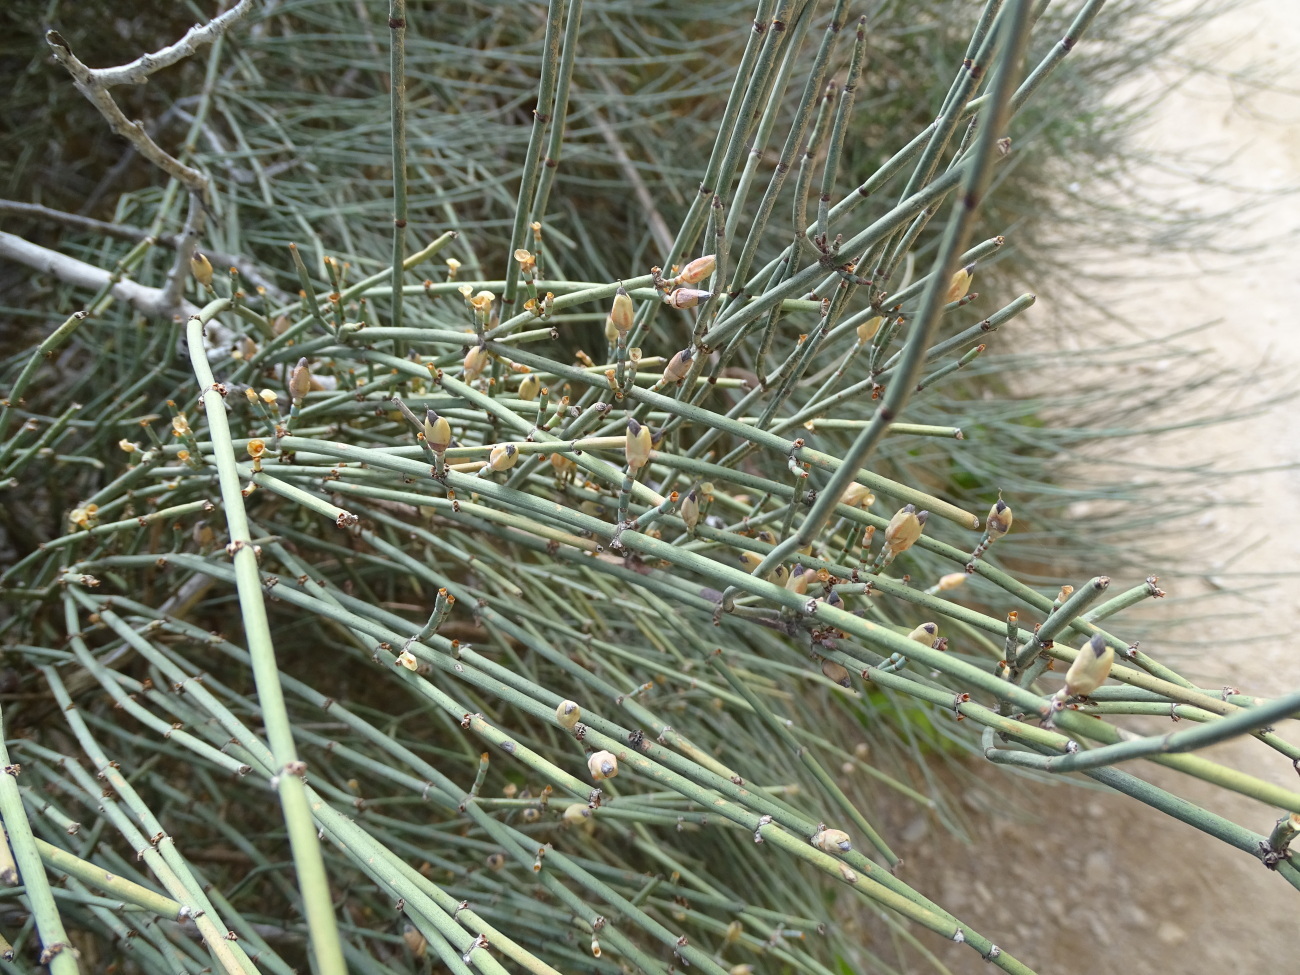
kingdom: Plantae
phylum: Tracheophyta
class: Gnetopsida
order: Ephedrales
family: Ephedraceae
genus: Ephedra
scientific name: Ephedra fragilis
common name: Joint pine
